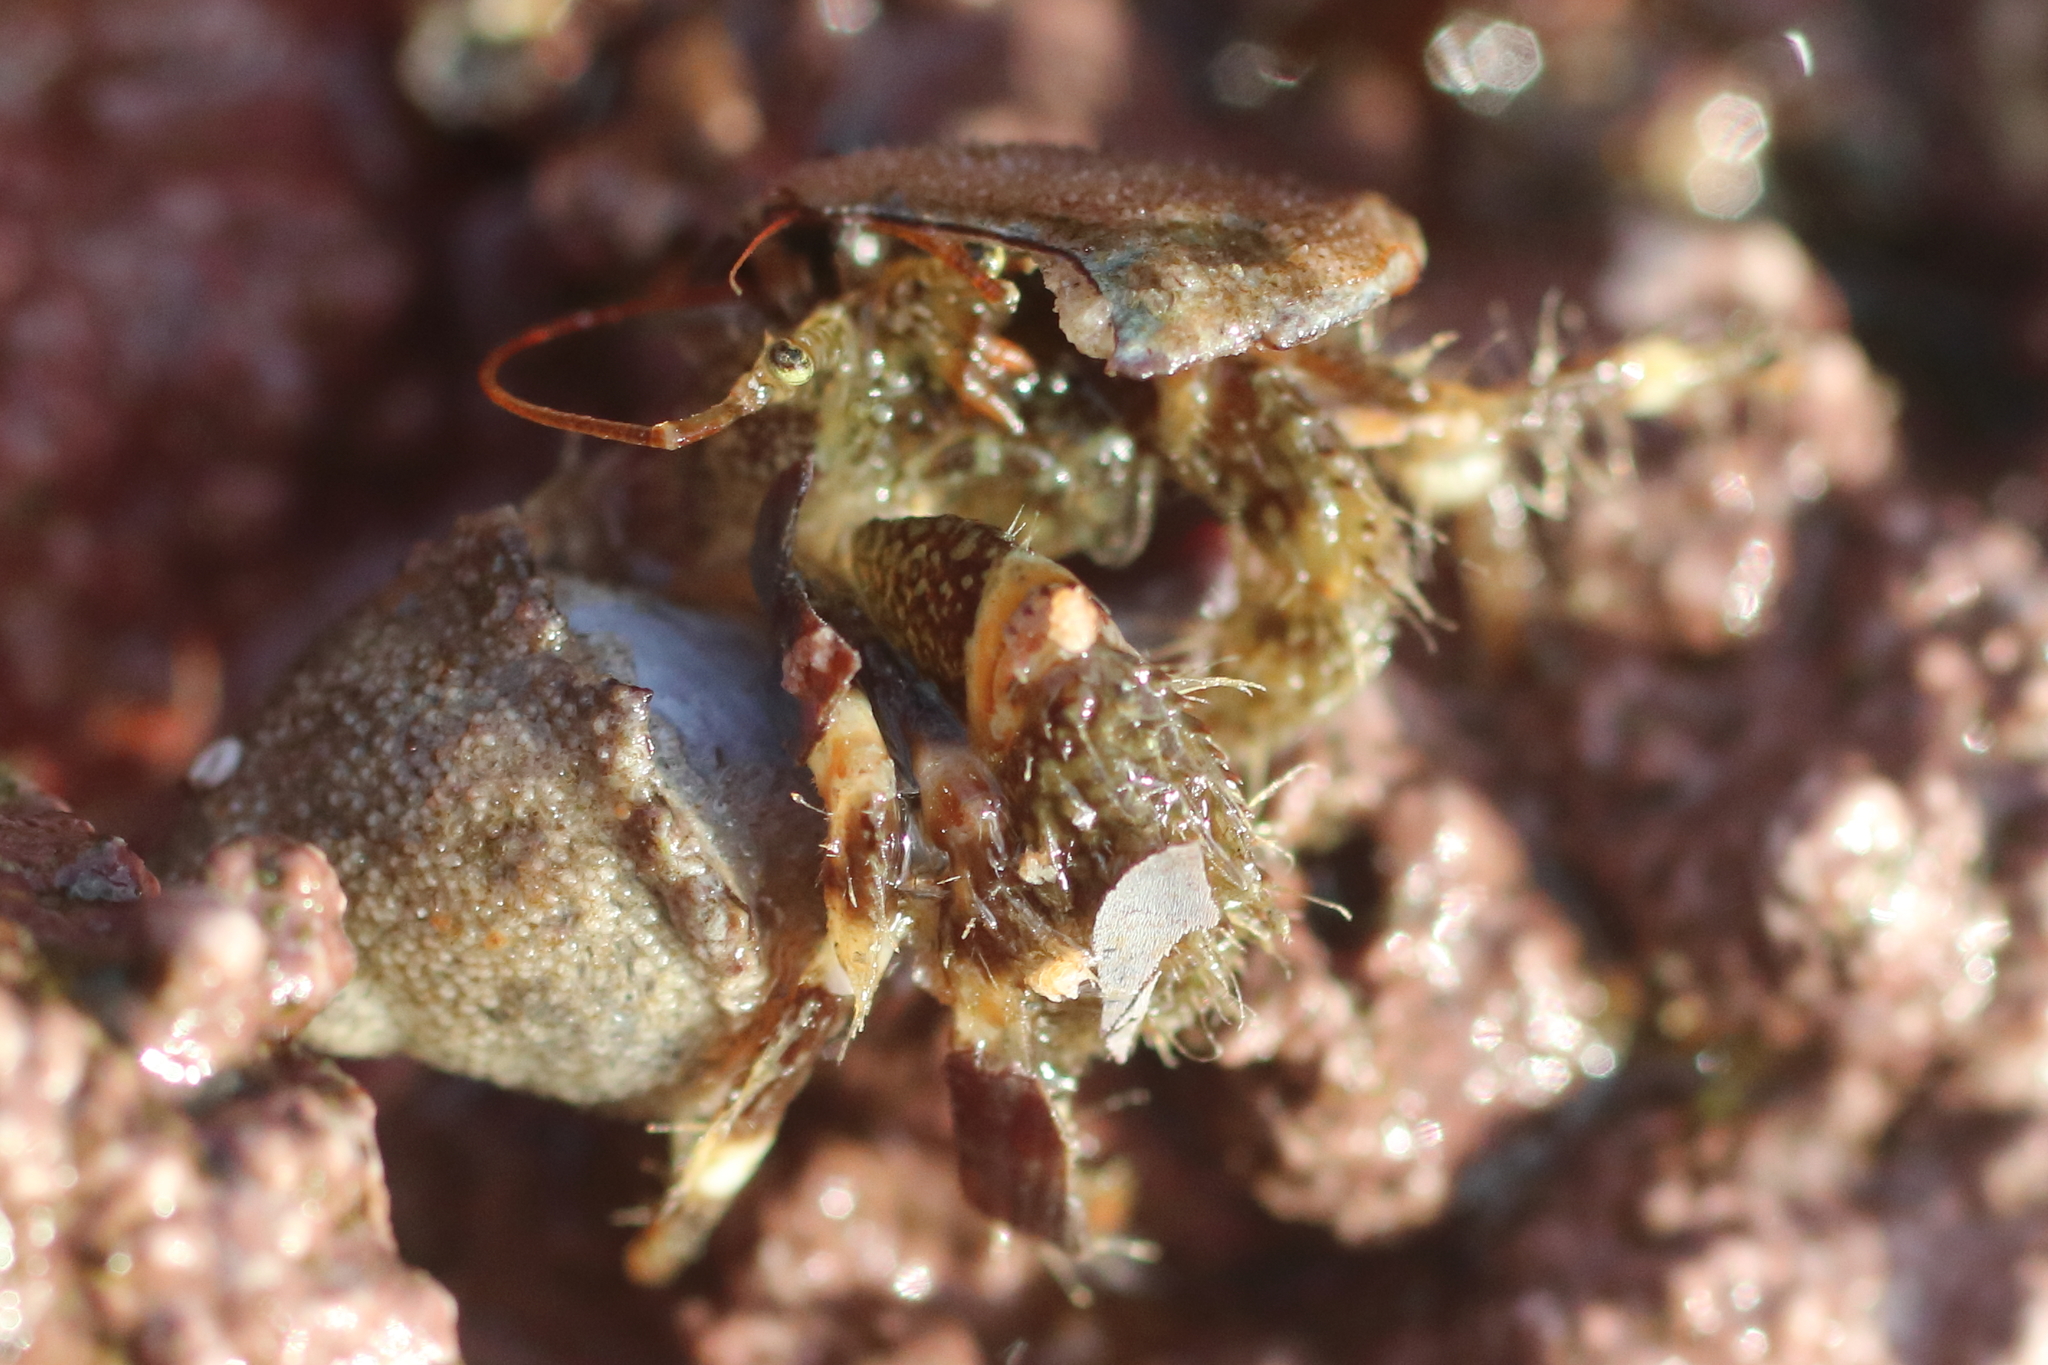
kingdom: Animalia
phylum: Arthropoda
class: Malacostraca
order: Decapoda
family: Paguridae
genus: Pagurus
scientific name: Pagurus caurinus
